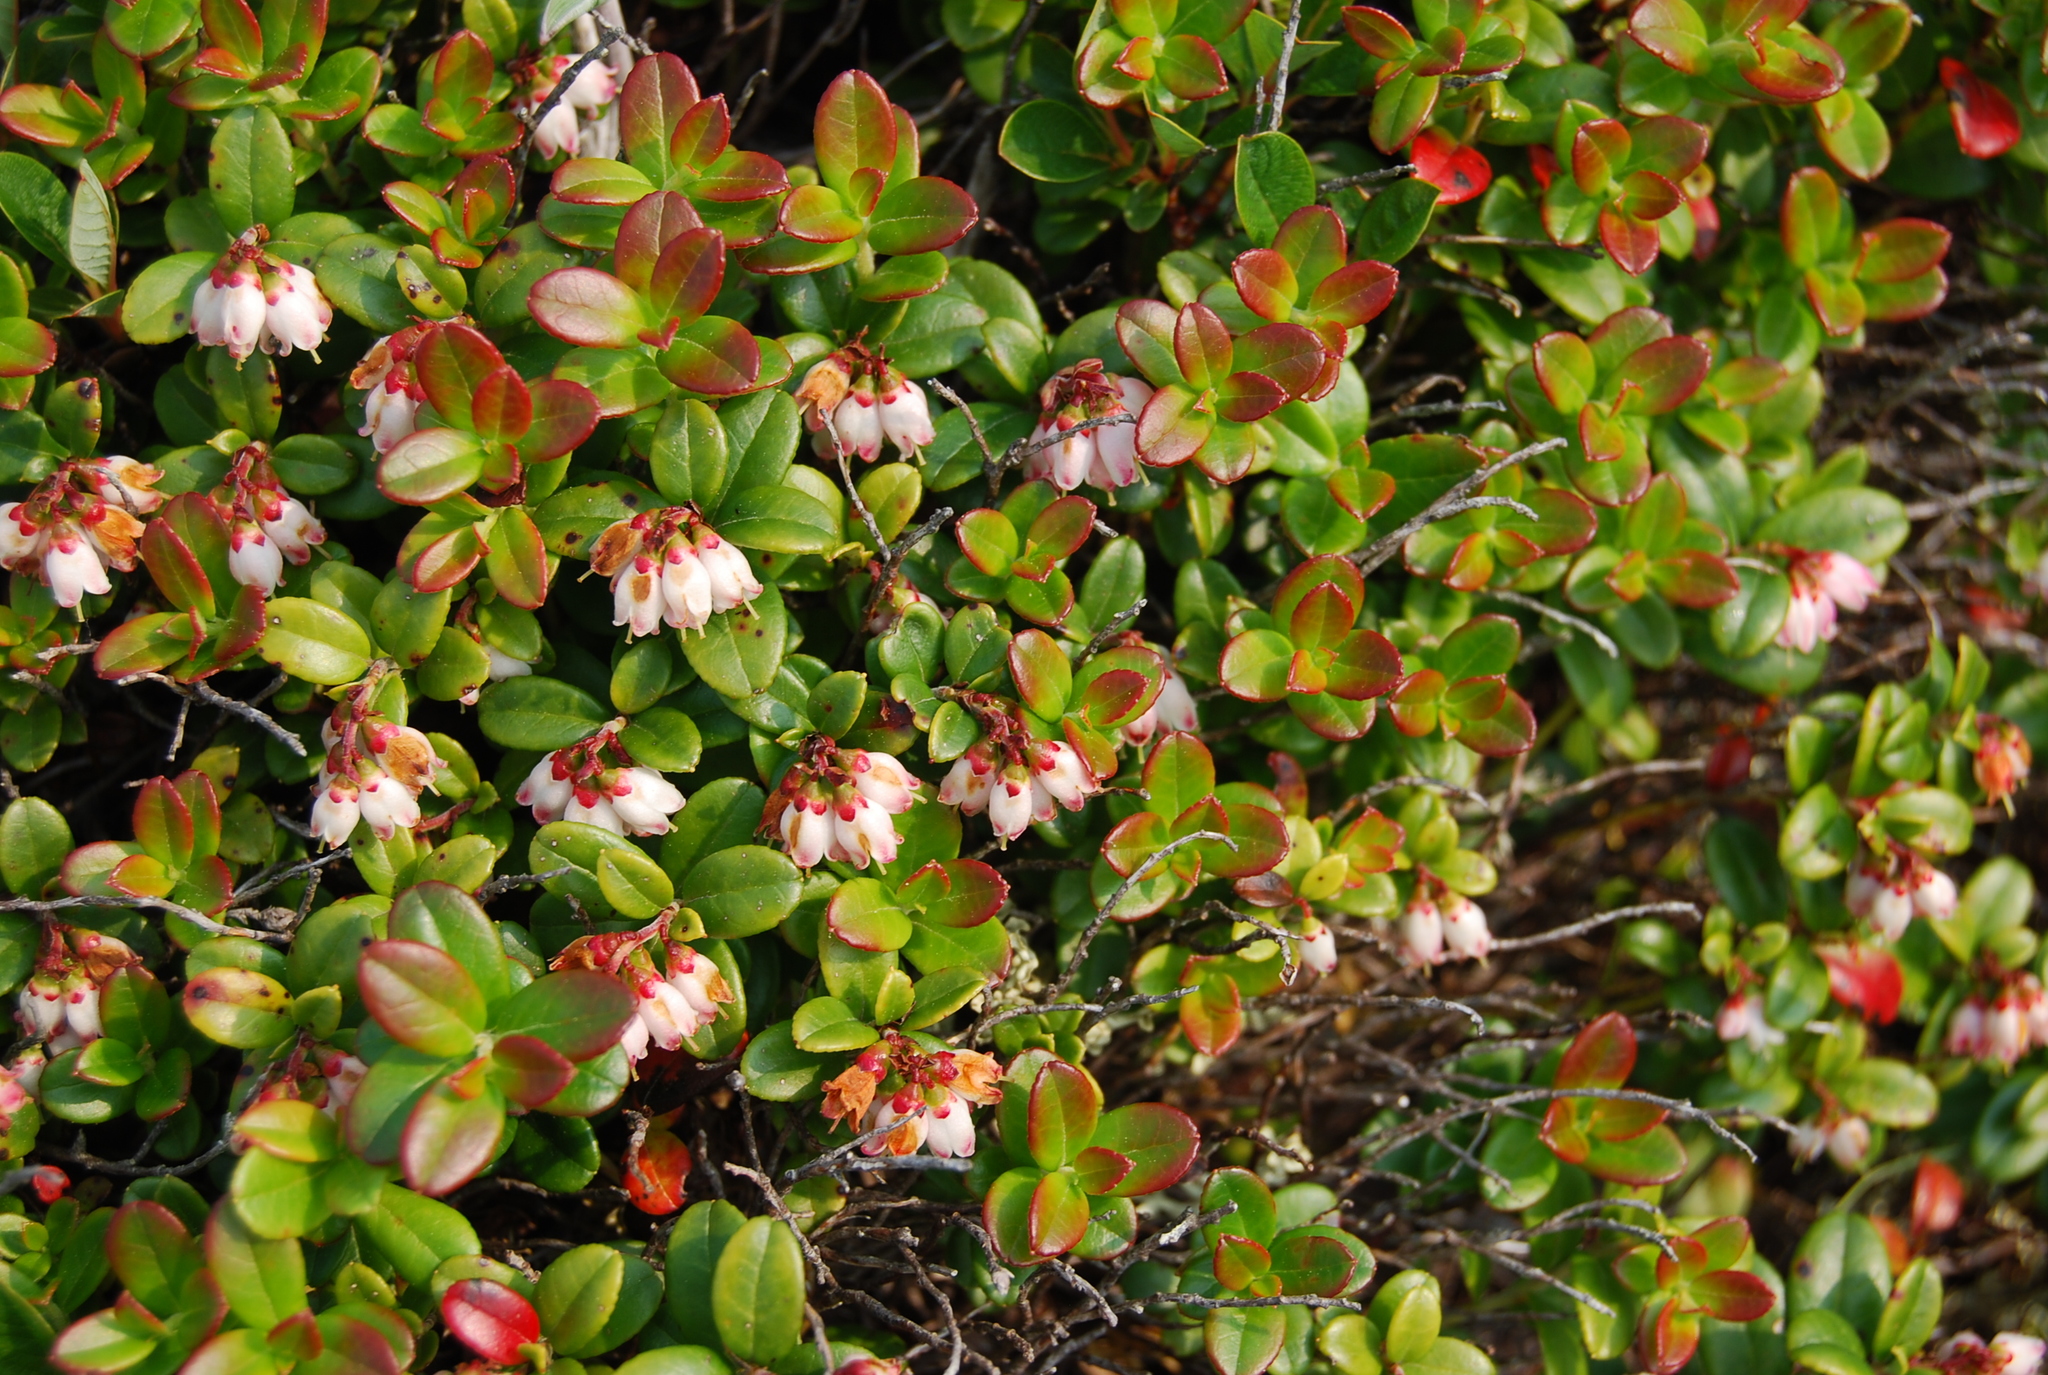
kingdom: Plantae
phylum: Tracheophyta
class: Magnoliopsida
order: Ericales
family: Ericaceae
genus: Vaccinium
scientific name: Vaccinium vitis-idaea
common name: Cowberry
